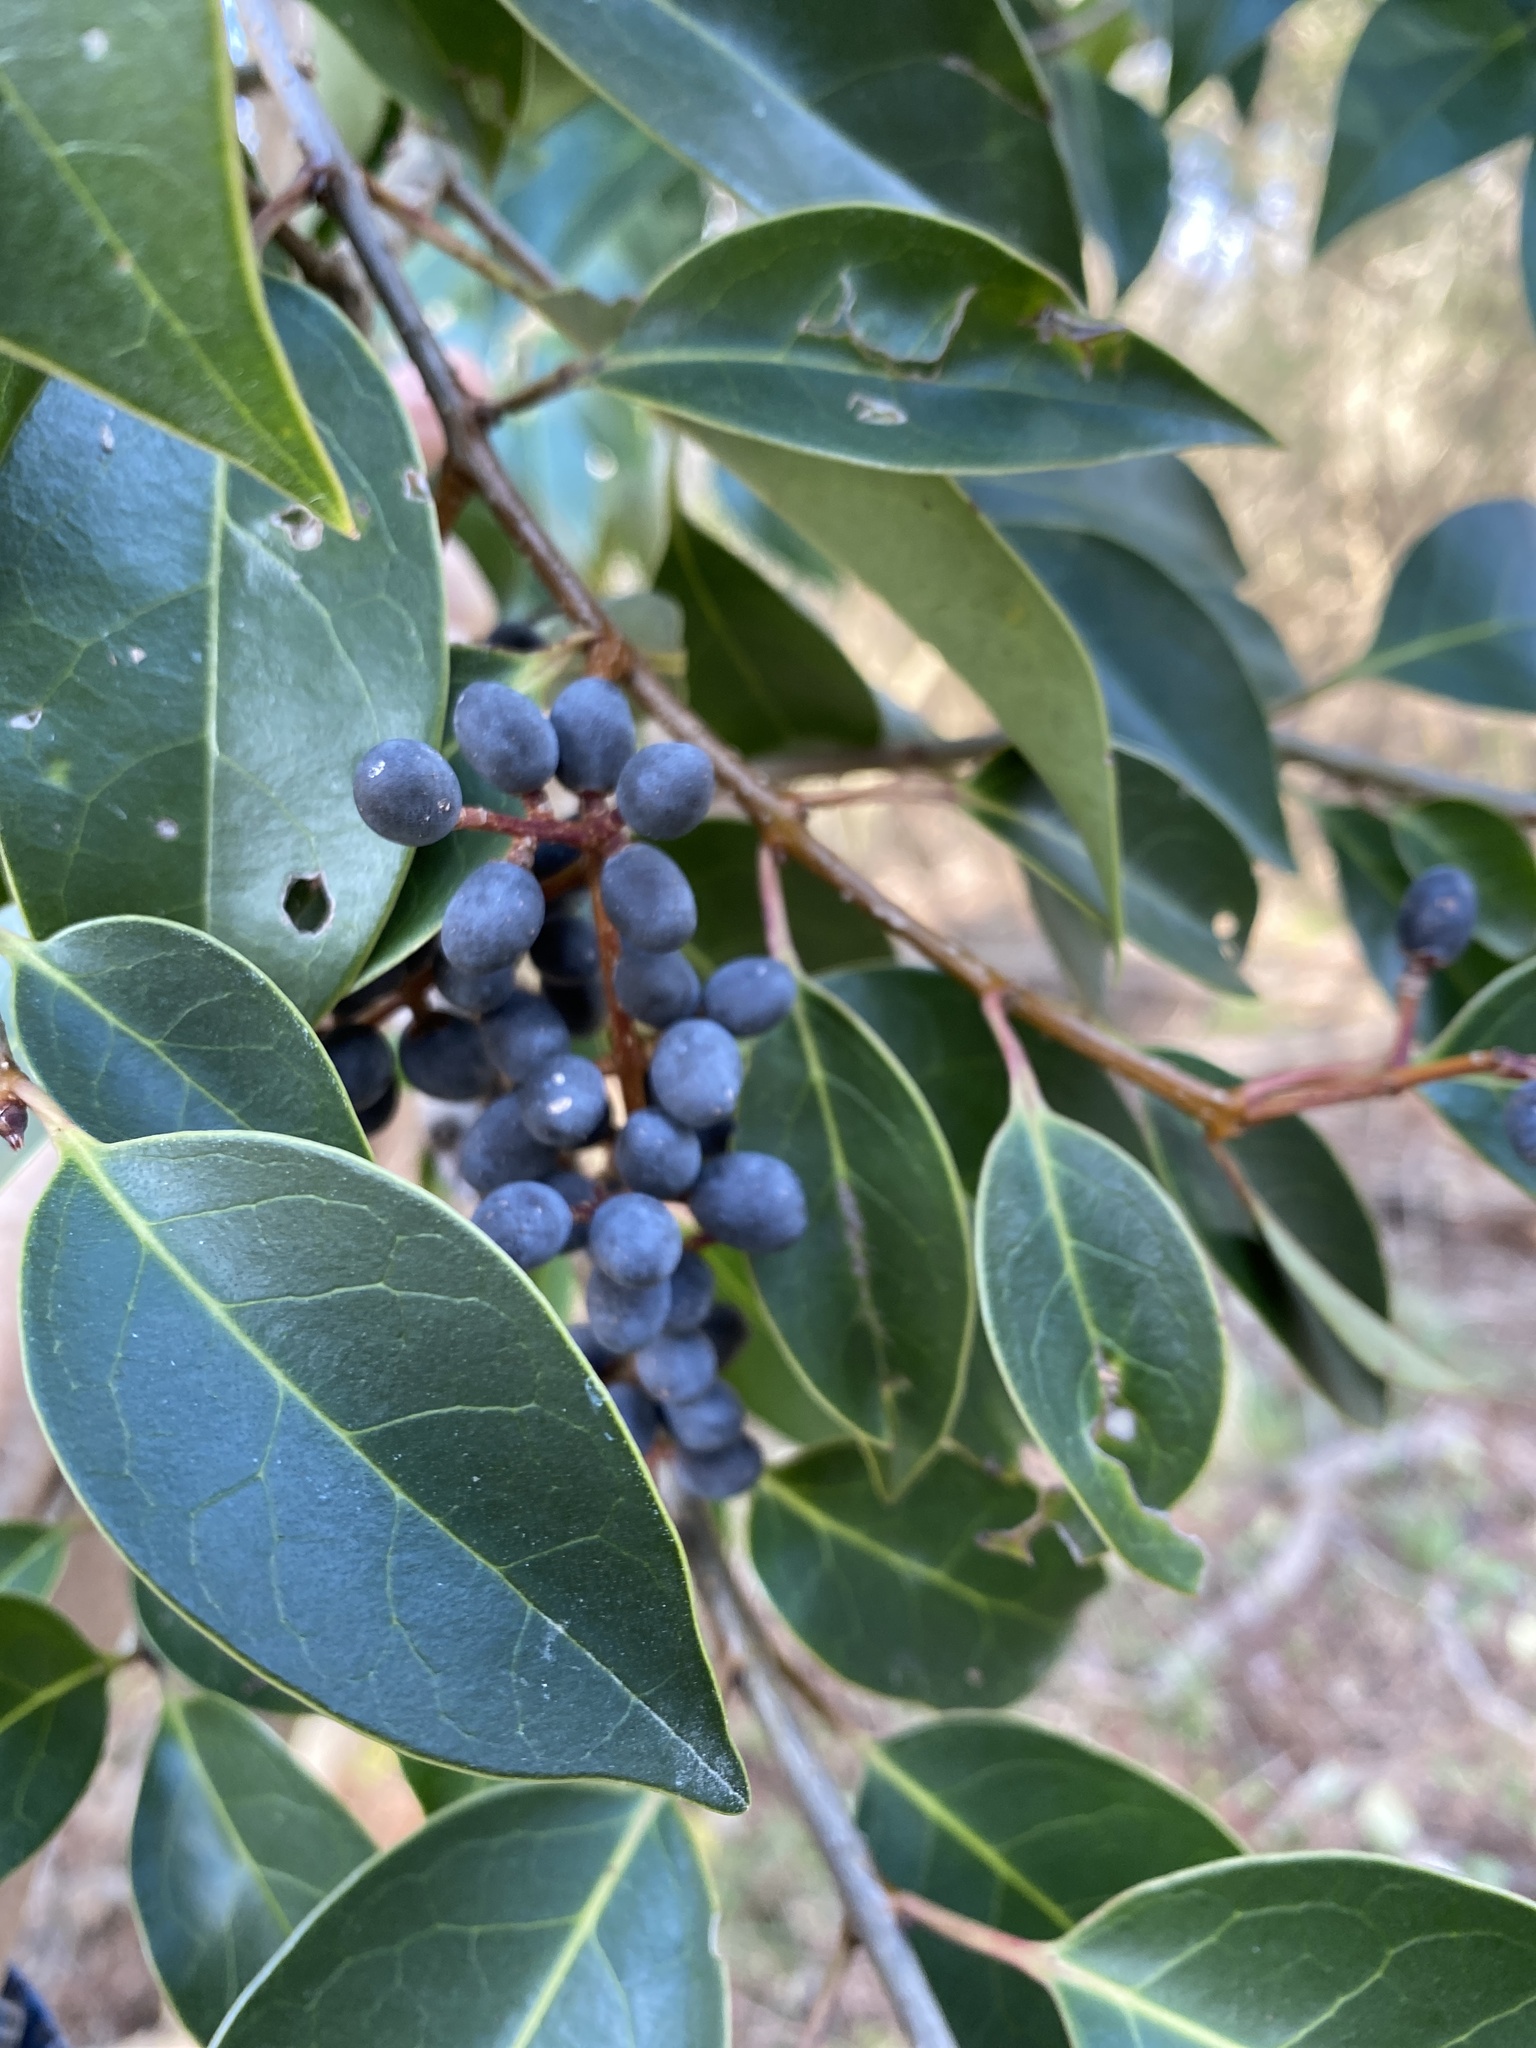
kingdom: Plantae
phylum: Tracheophyta
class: Magnoliopsida
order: Lamiales
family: Oleaceae
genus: Ligustrum
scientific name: Ligustrum lucidum
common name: Glossy privet
